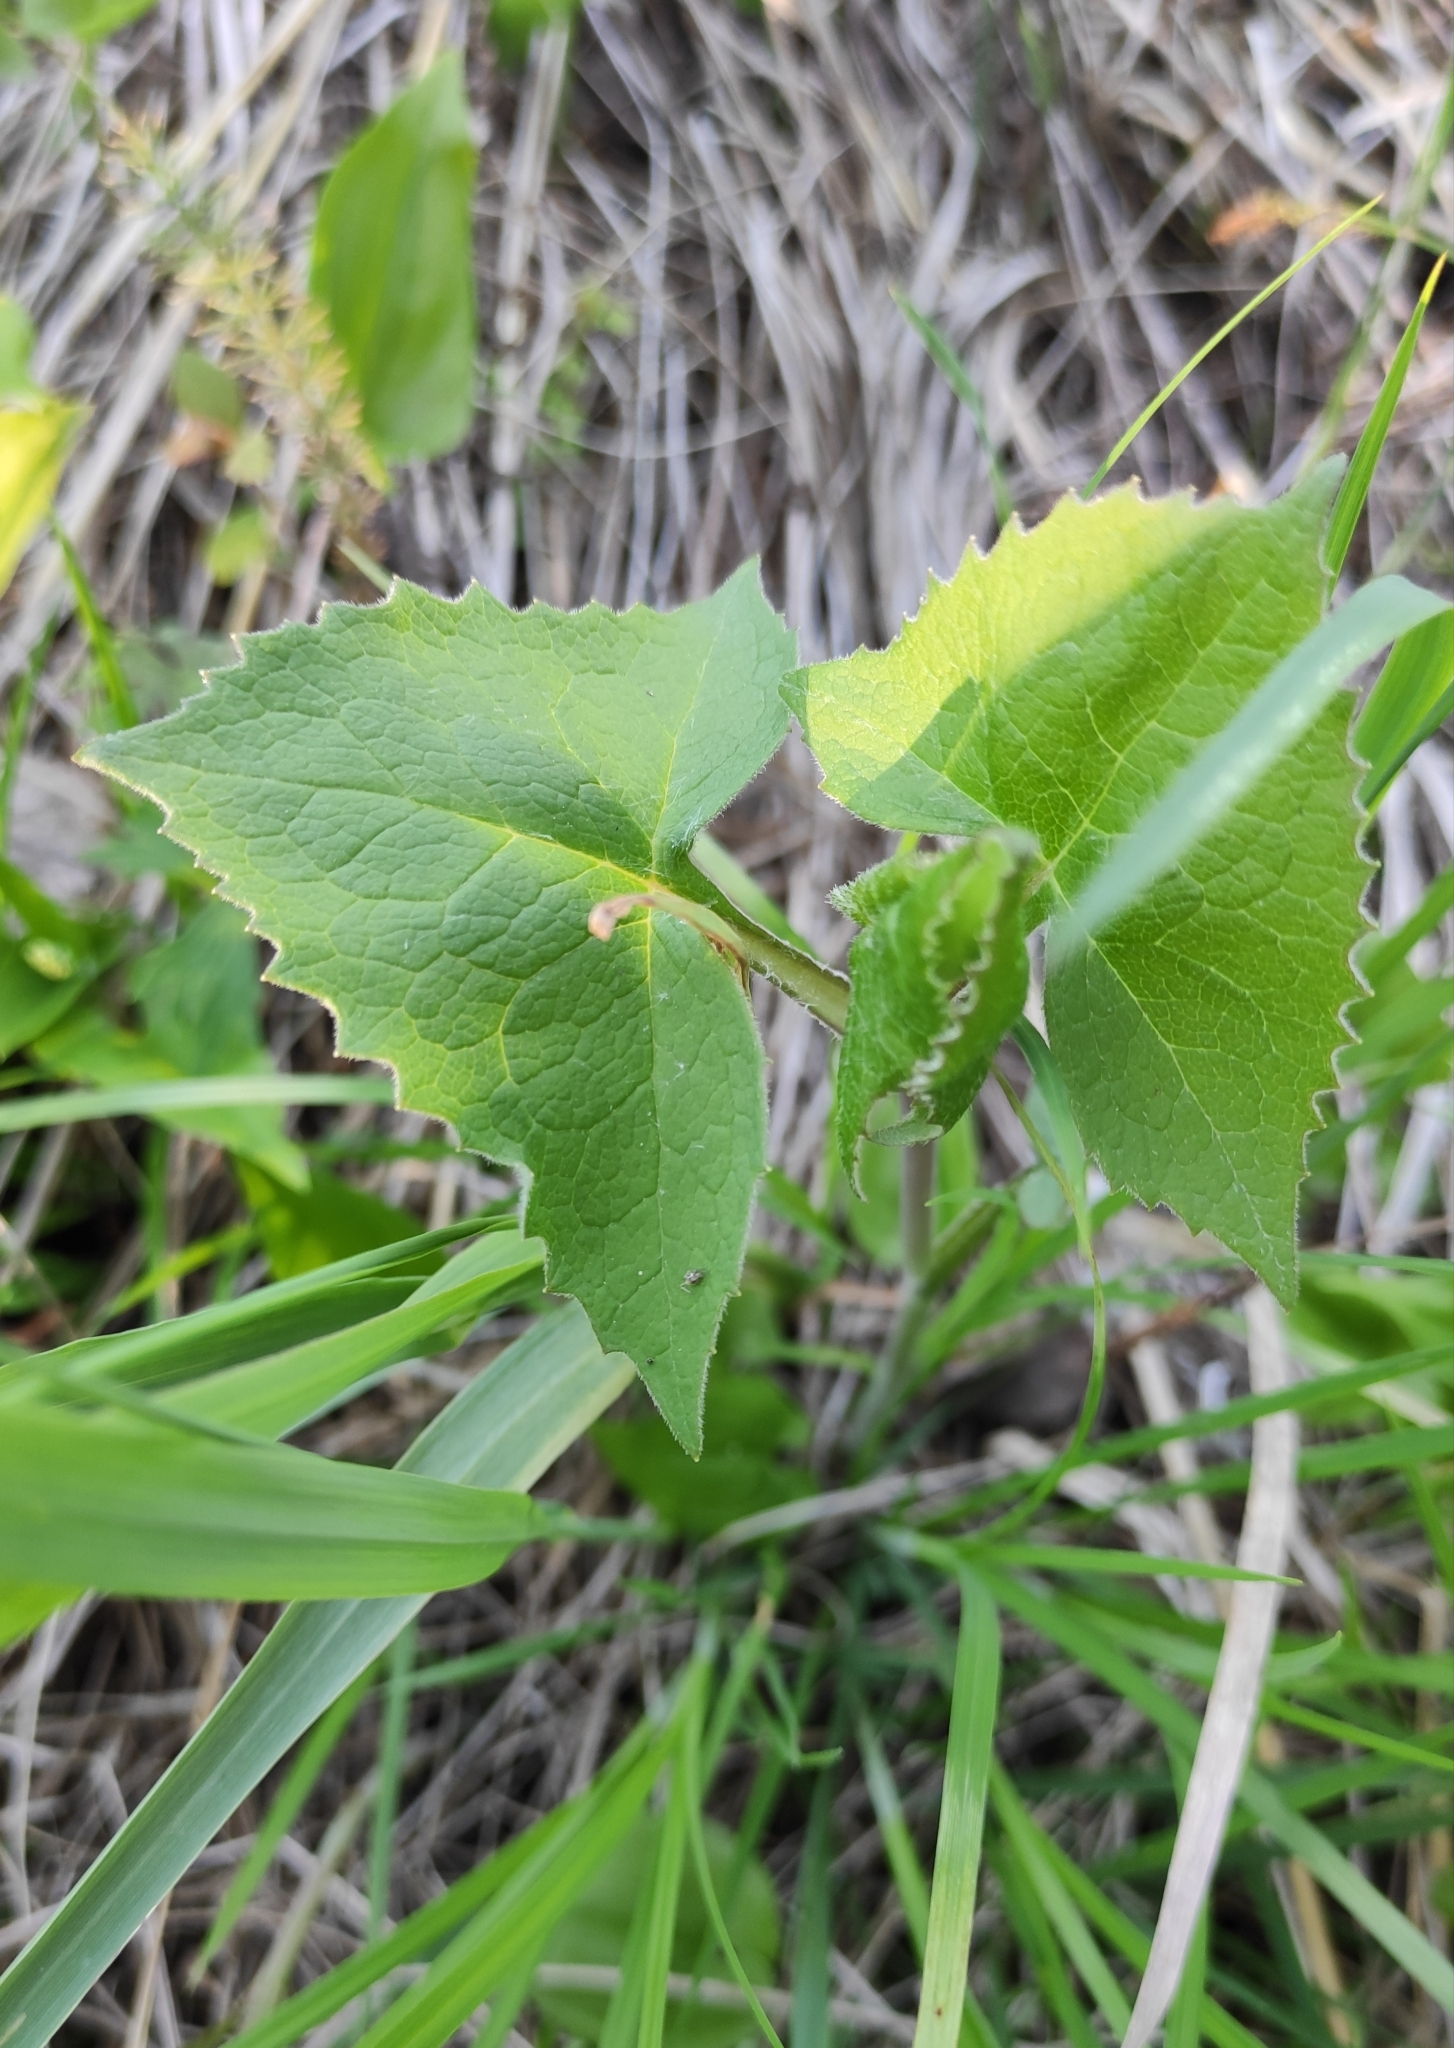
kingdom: Plantae
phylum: Tracheophyta
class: Magnoliopsida
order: Asterales
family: Asteraceae
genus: Parasenecio
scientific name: Parasenecio hastatus
